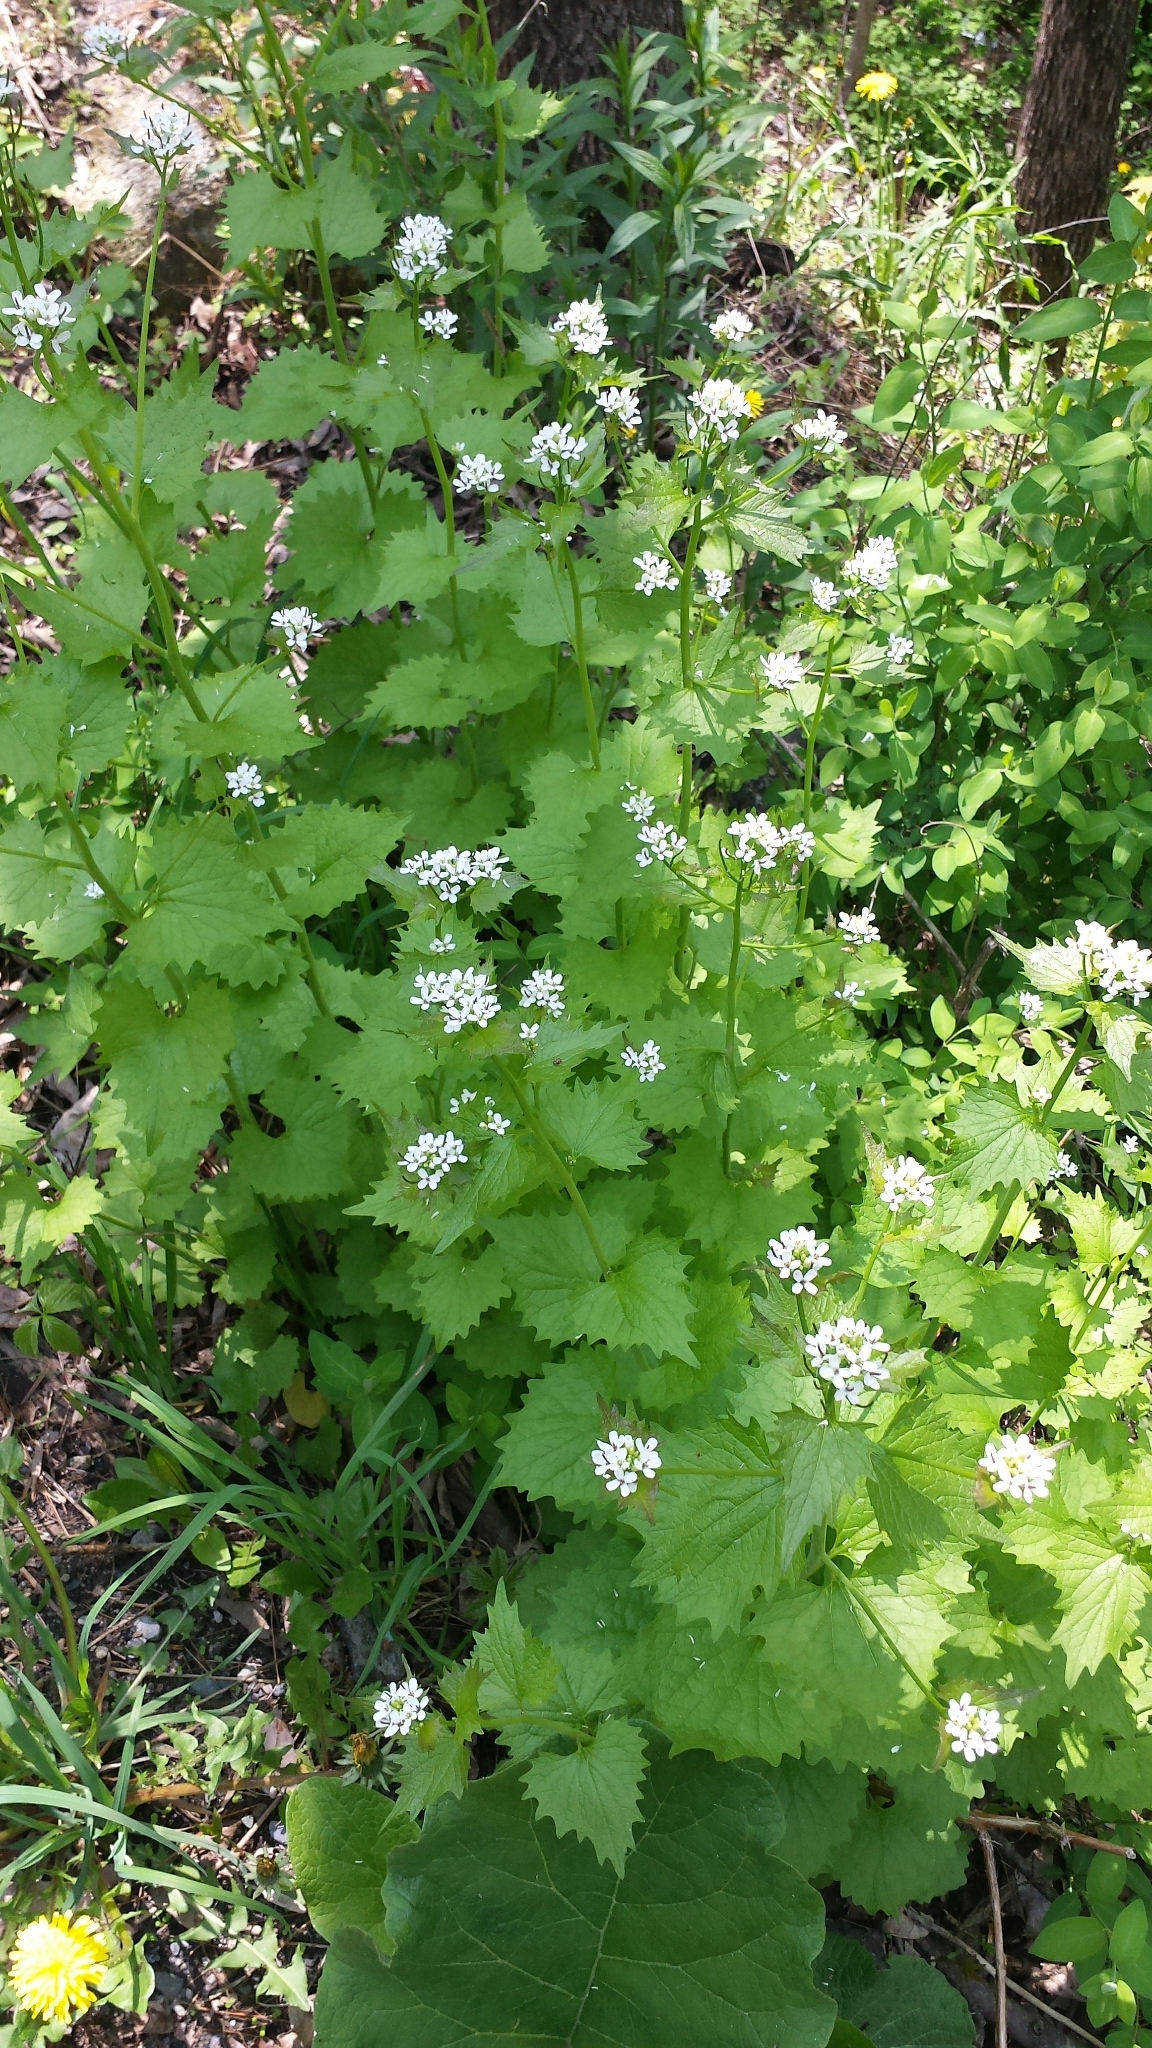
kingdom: Plantae
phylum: Tracheophyta
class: Magnoliopsida
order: Brassicales
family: Brassicaceae
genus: Alliaria
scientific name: Alliaria petiolata
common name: Garlic mustard
